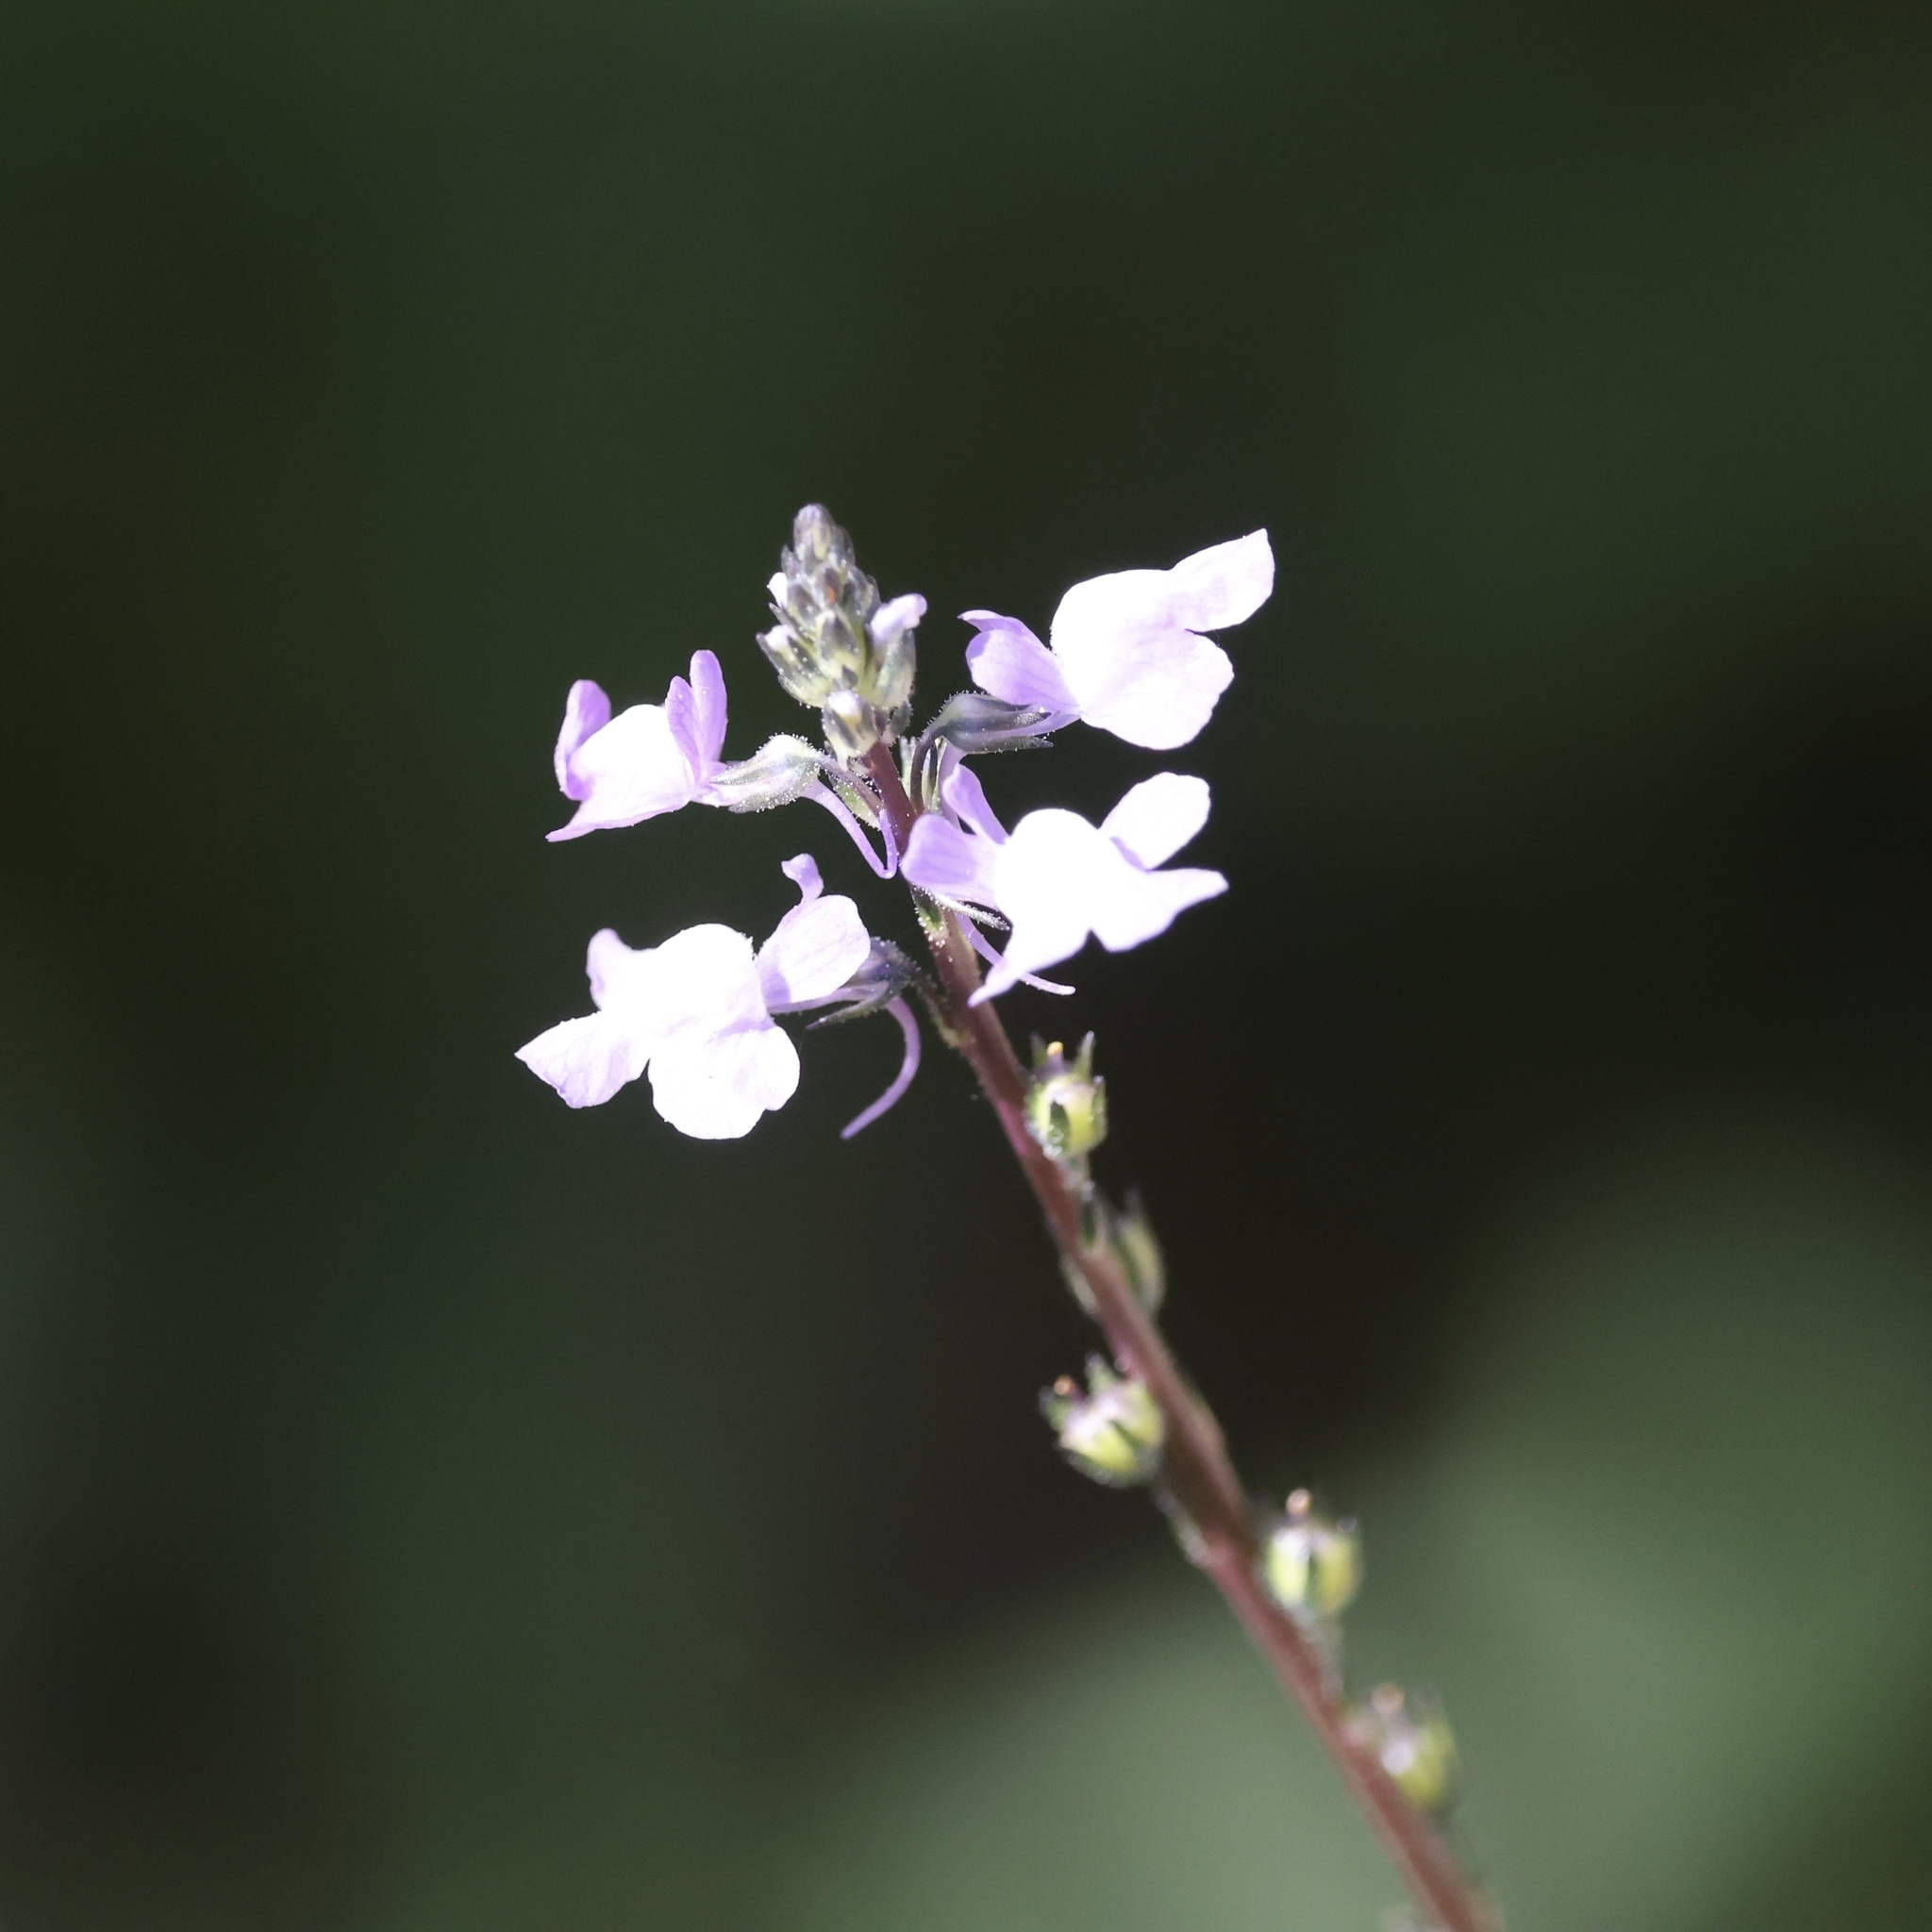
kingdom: Plantae
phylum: Tracheophyta
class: Magnoliopsida
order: Lamiales
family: Plantaginaceae
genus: Nuttallanthus
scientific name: Nuttallanthus canadensis
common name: Blue toadflax
